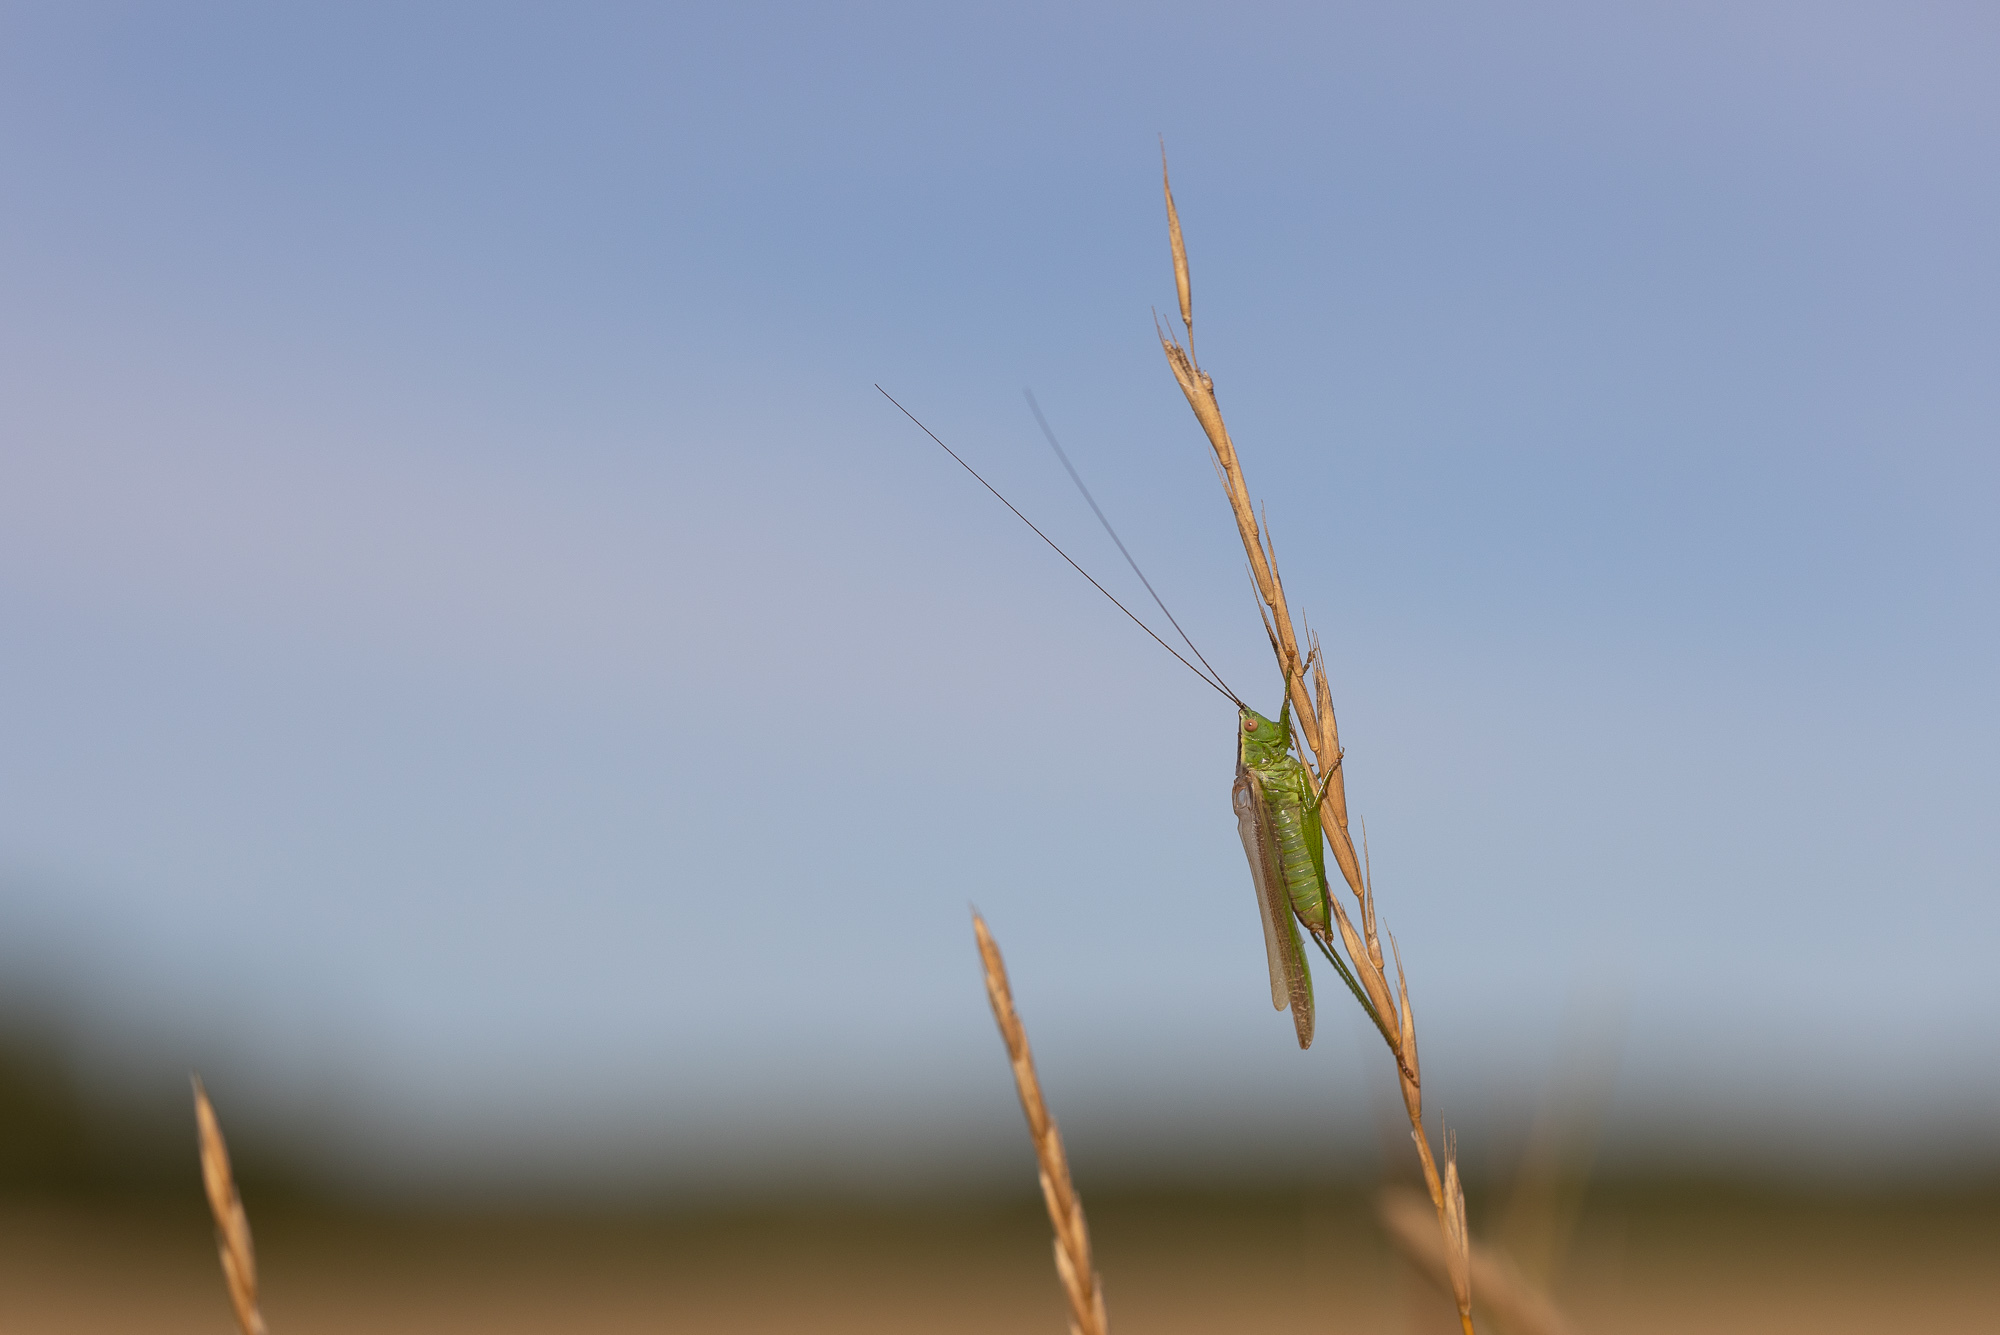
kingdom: Animalia
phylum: Arthropoda
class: Insecta
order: Orthoptera
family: Tettigoniidae
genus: Conocephalus
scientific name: Conocephalus fuscus
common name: Long-winged conehead
